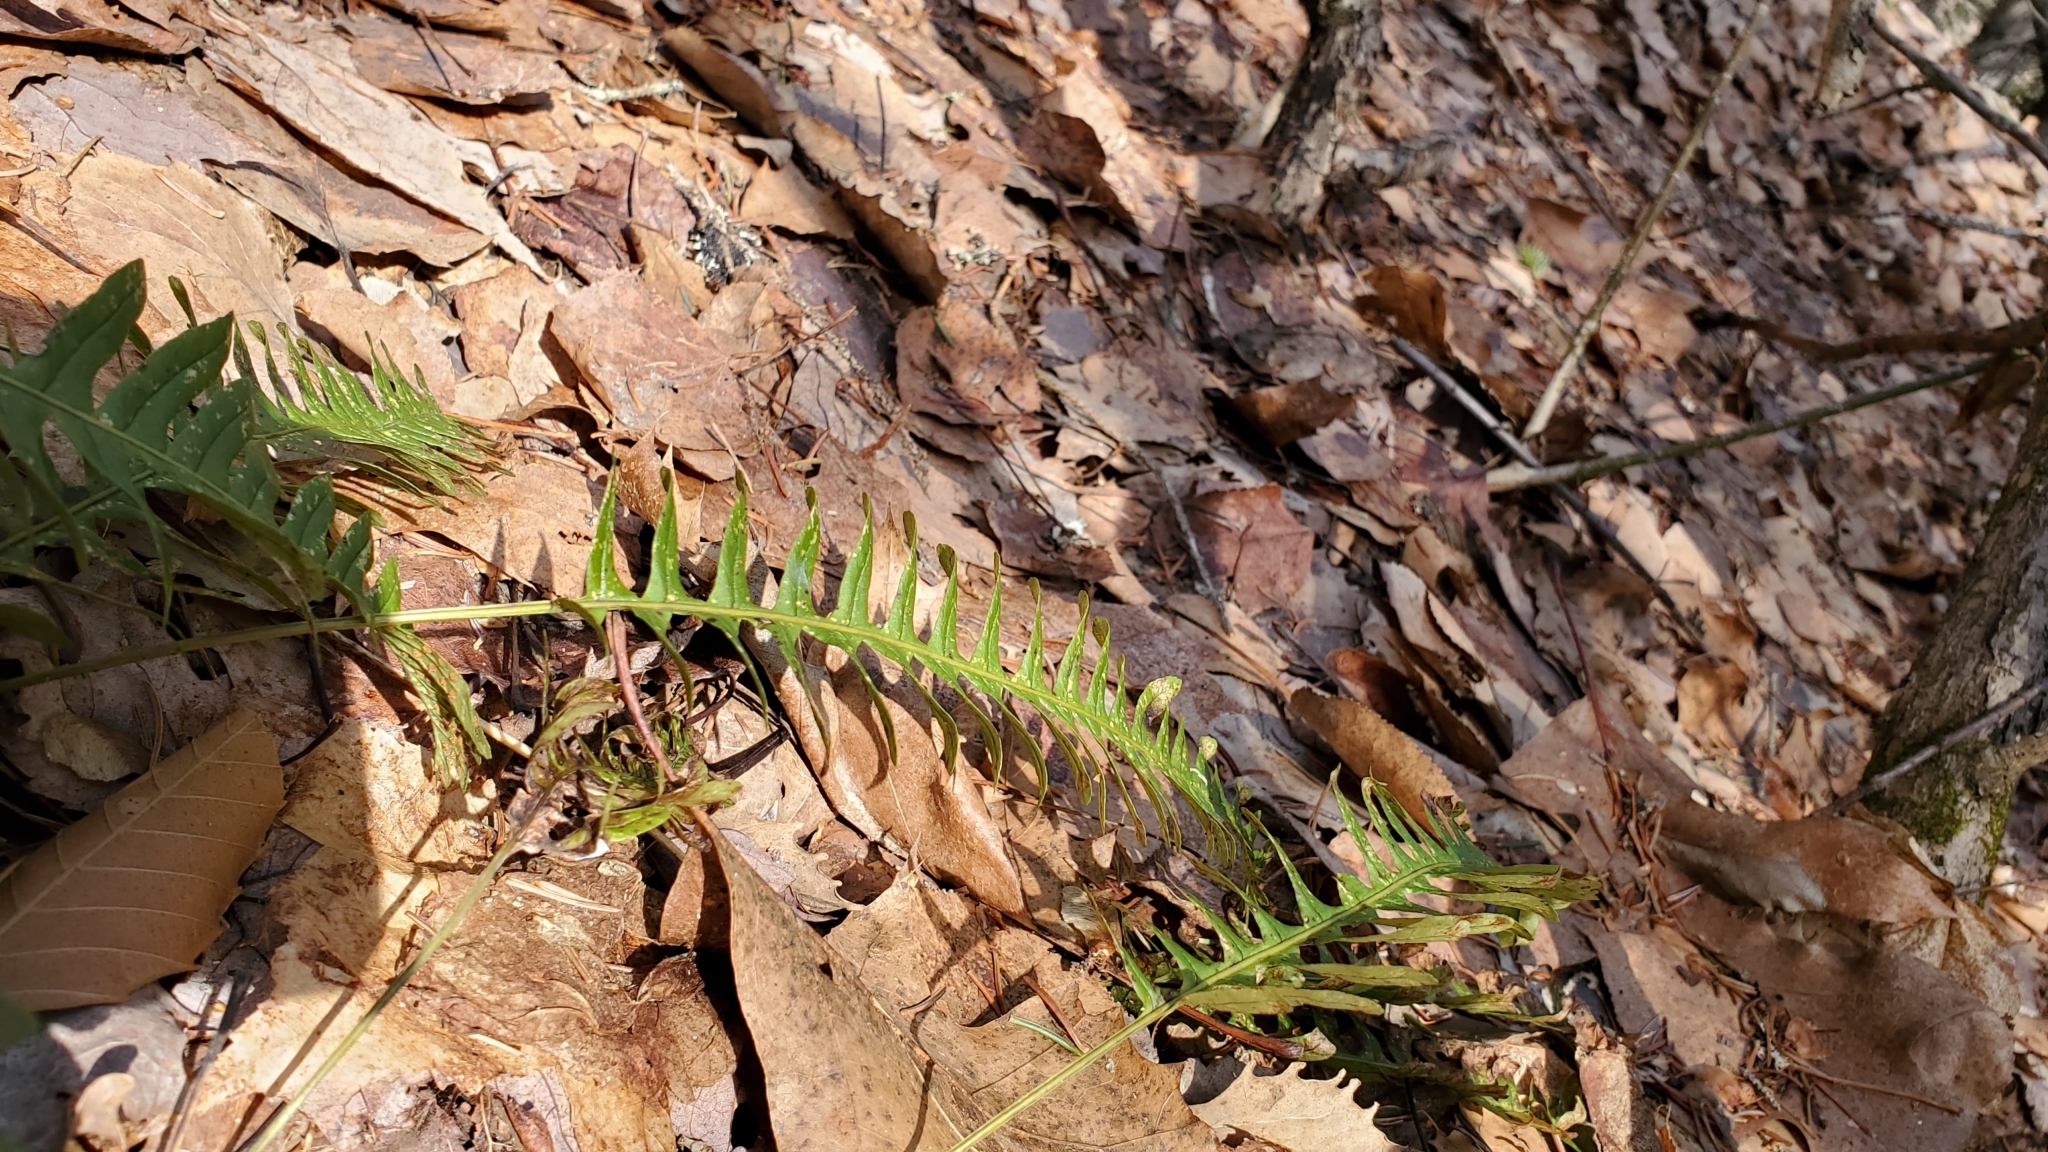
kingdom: Plantae
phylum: Tracheophyta
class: Polypodiopsida
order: Polypodiales
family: Polypodiaceae
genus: Polypodium
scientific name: Polypodium virginianum
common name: American wall fern
